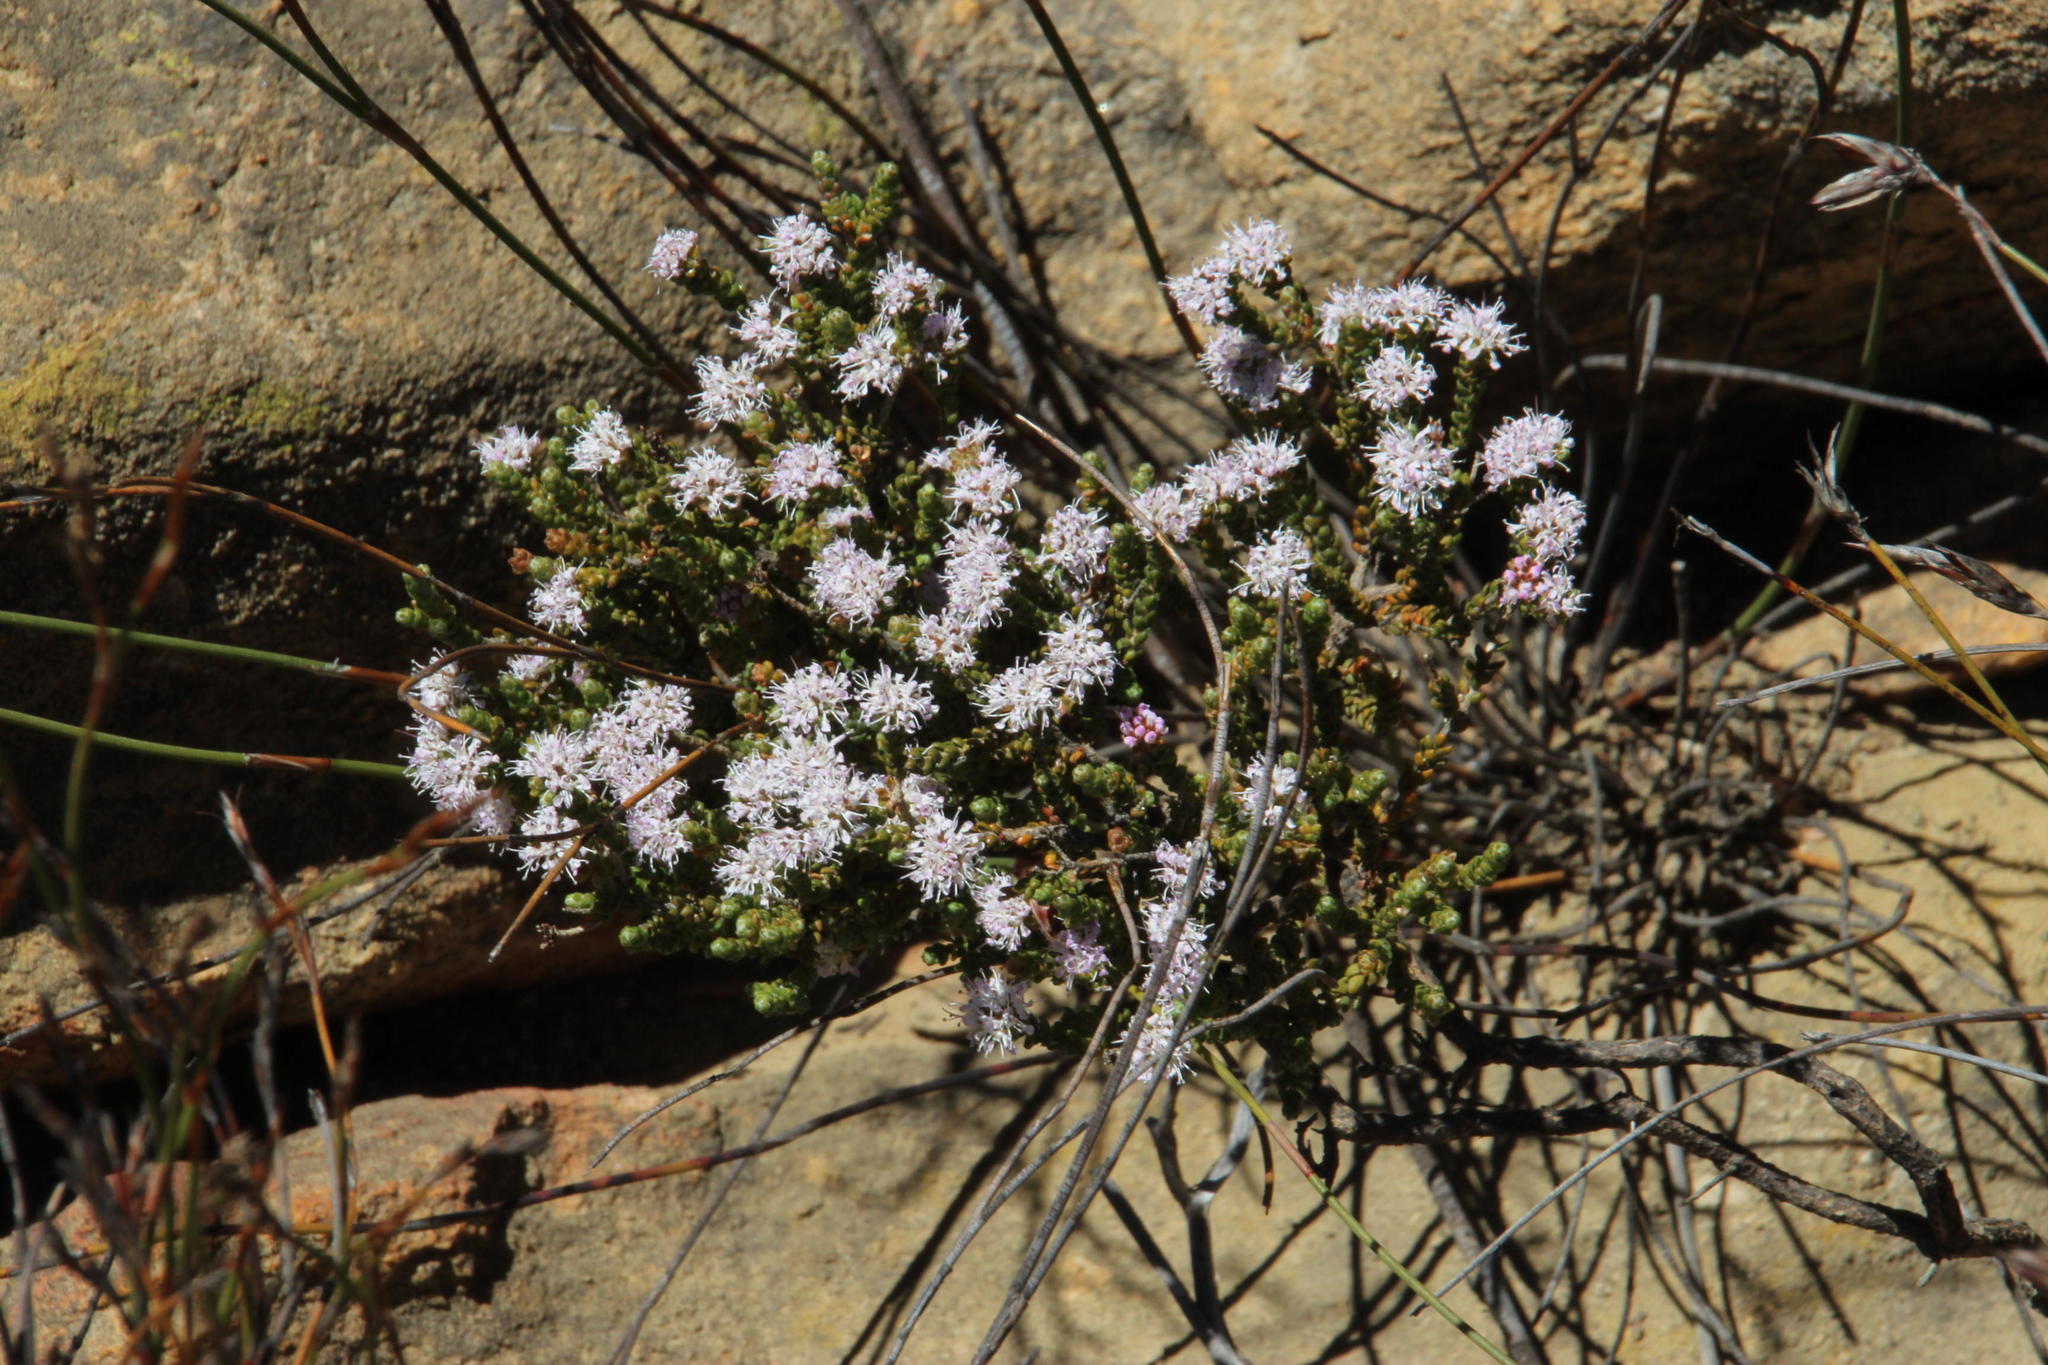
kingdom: Plantae
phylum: Tracheophyta
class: Magnoliopsida
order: Sapindales
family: Rutaceae
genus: Agathosma
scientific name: Agathosma squamosa
